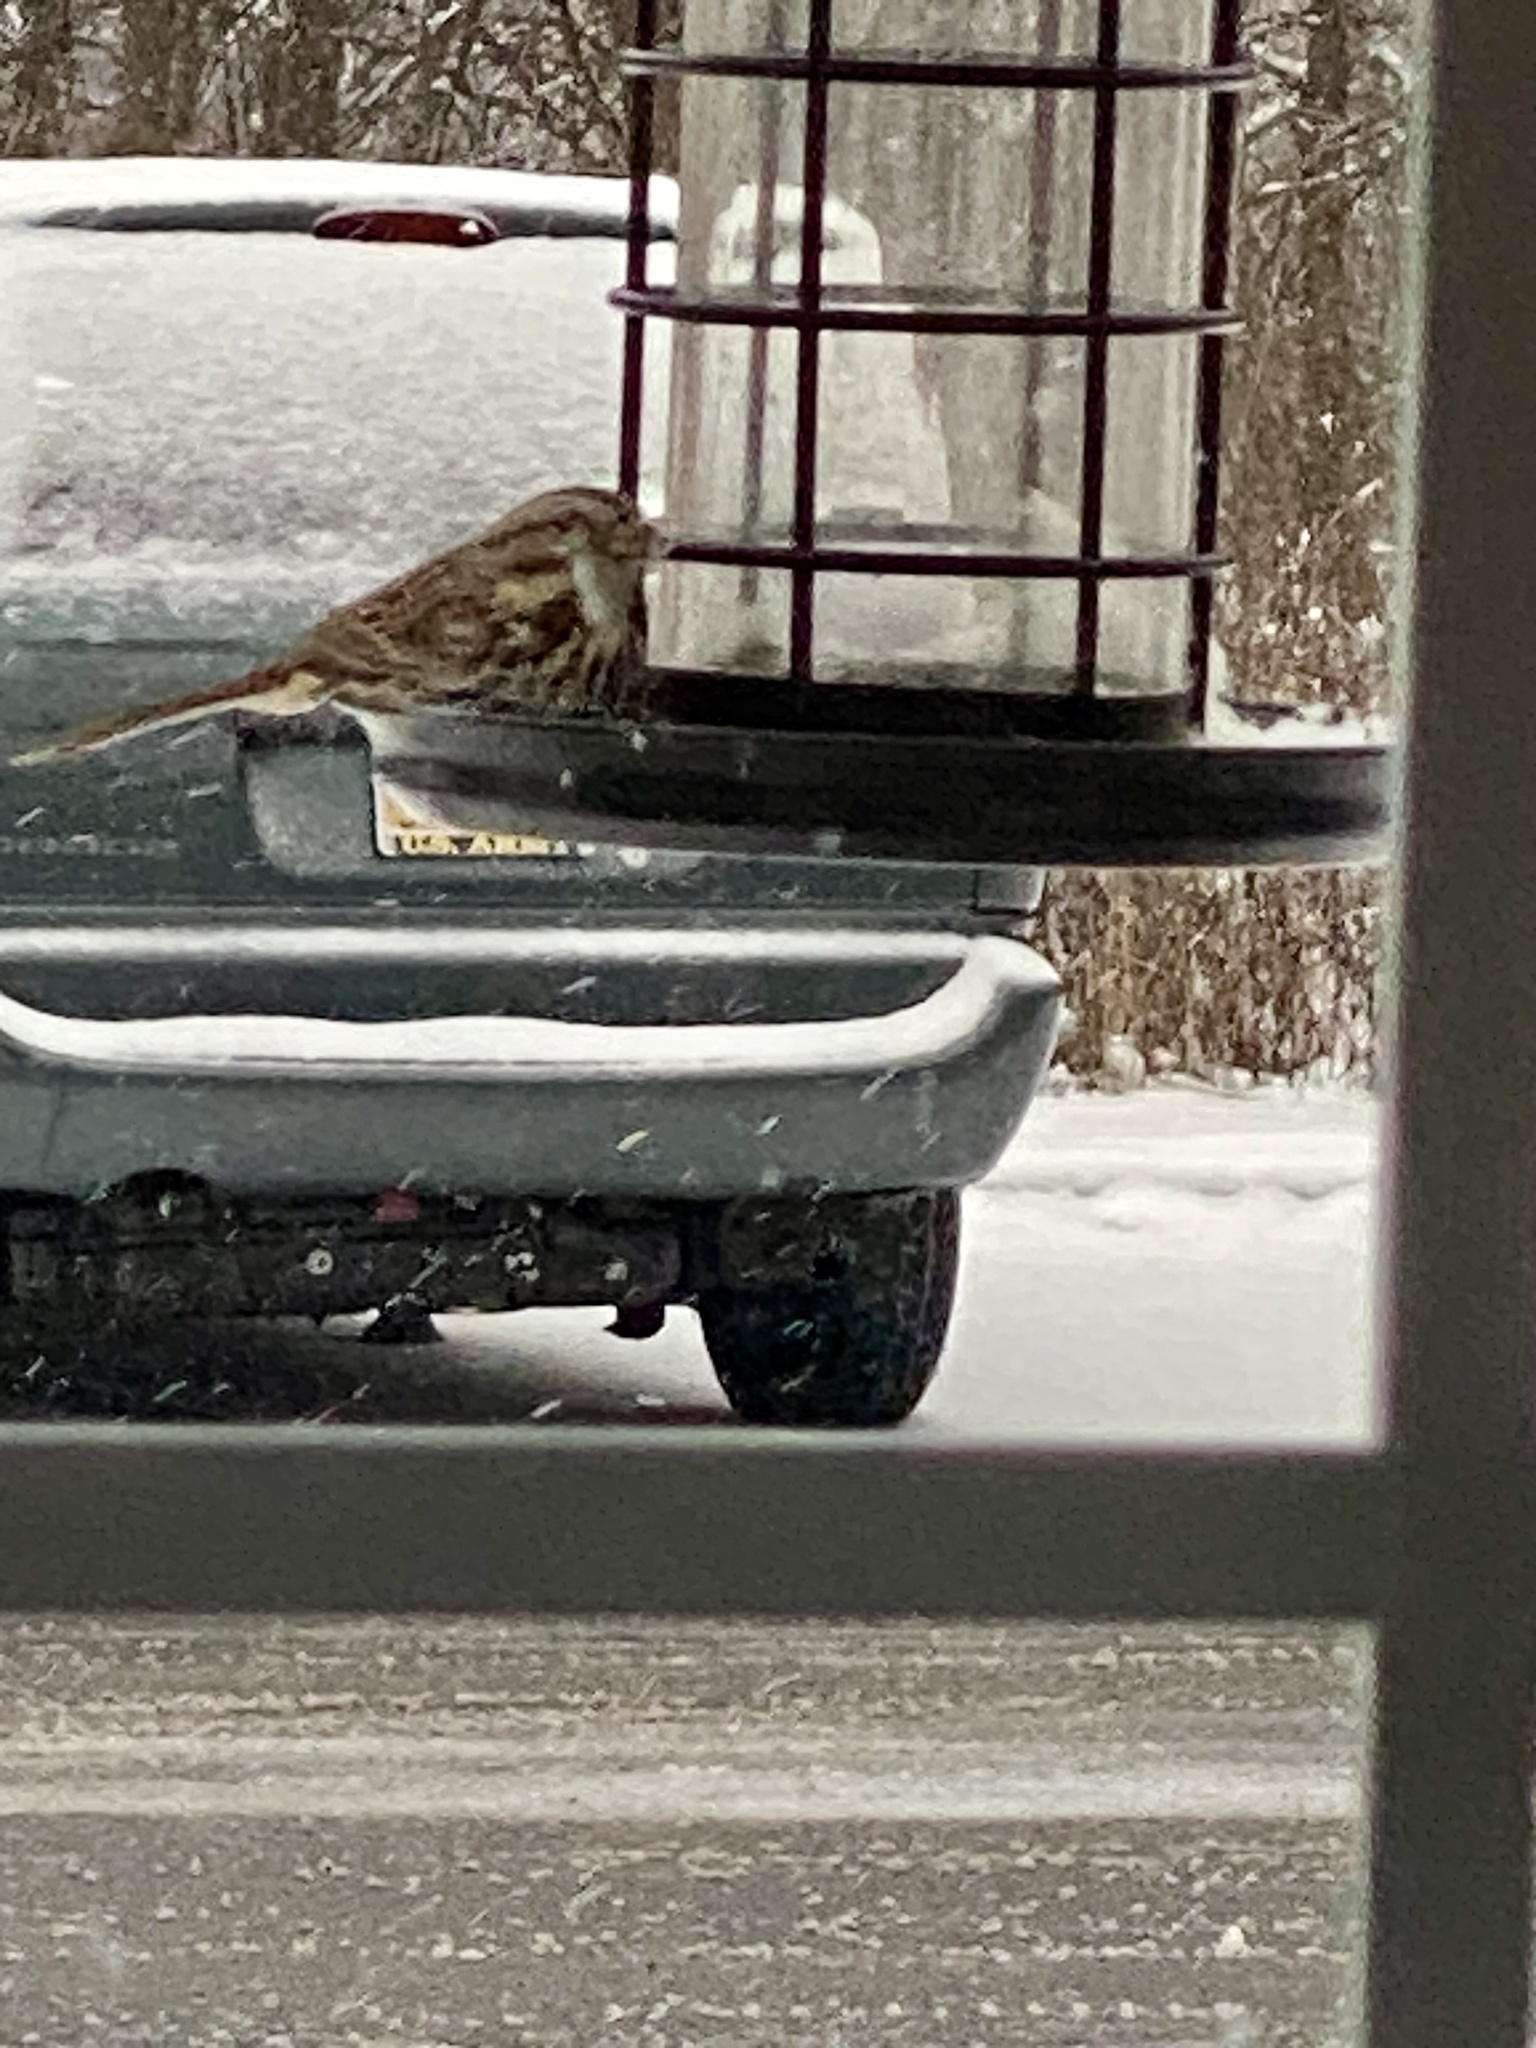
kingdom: Animalia
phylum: Chordata
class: Aves
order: Passeriformes
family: Passerellidae
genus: Melospiza
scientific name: Melospiza melodia
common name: Song sparrow
